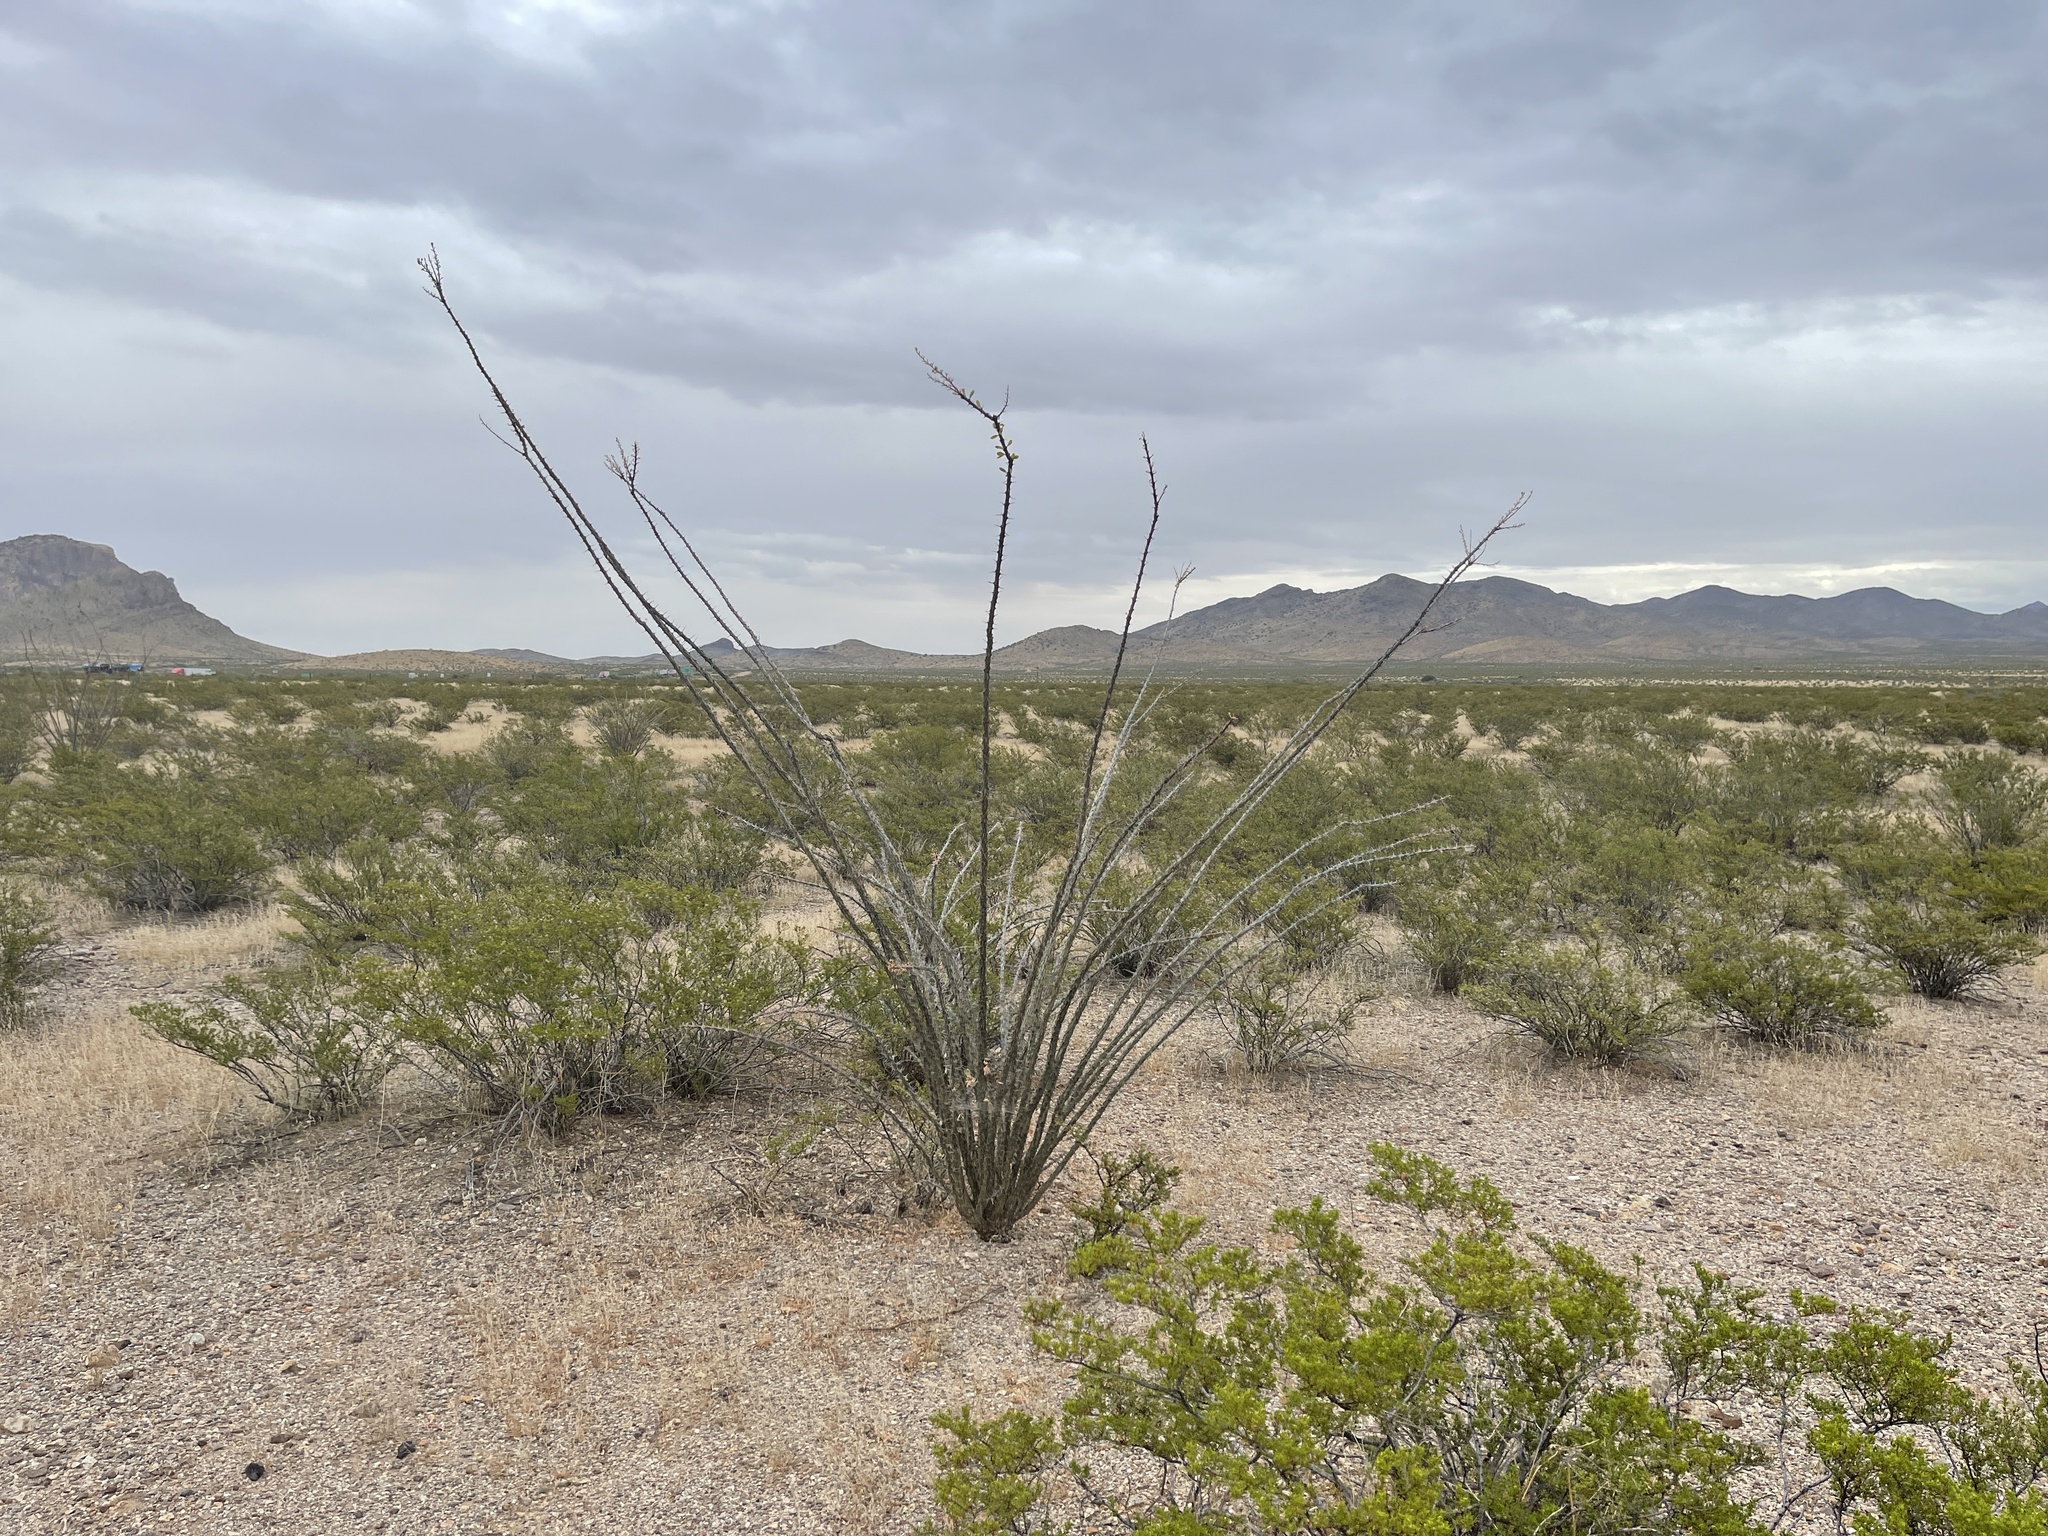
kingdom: Plantae
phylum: Tracheophyta
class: Magnoliopsida
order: Ericales
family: Fouquieriaceae
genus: Fouquieria
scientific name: Fouquieria splendens
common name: Vine-cactus
